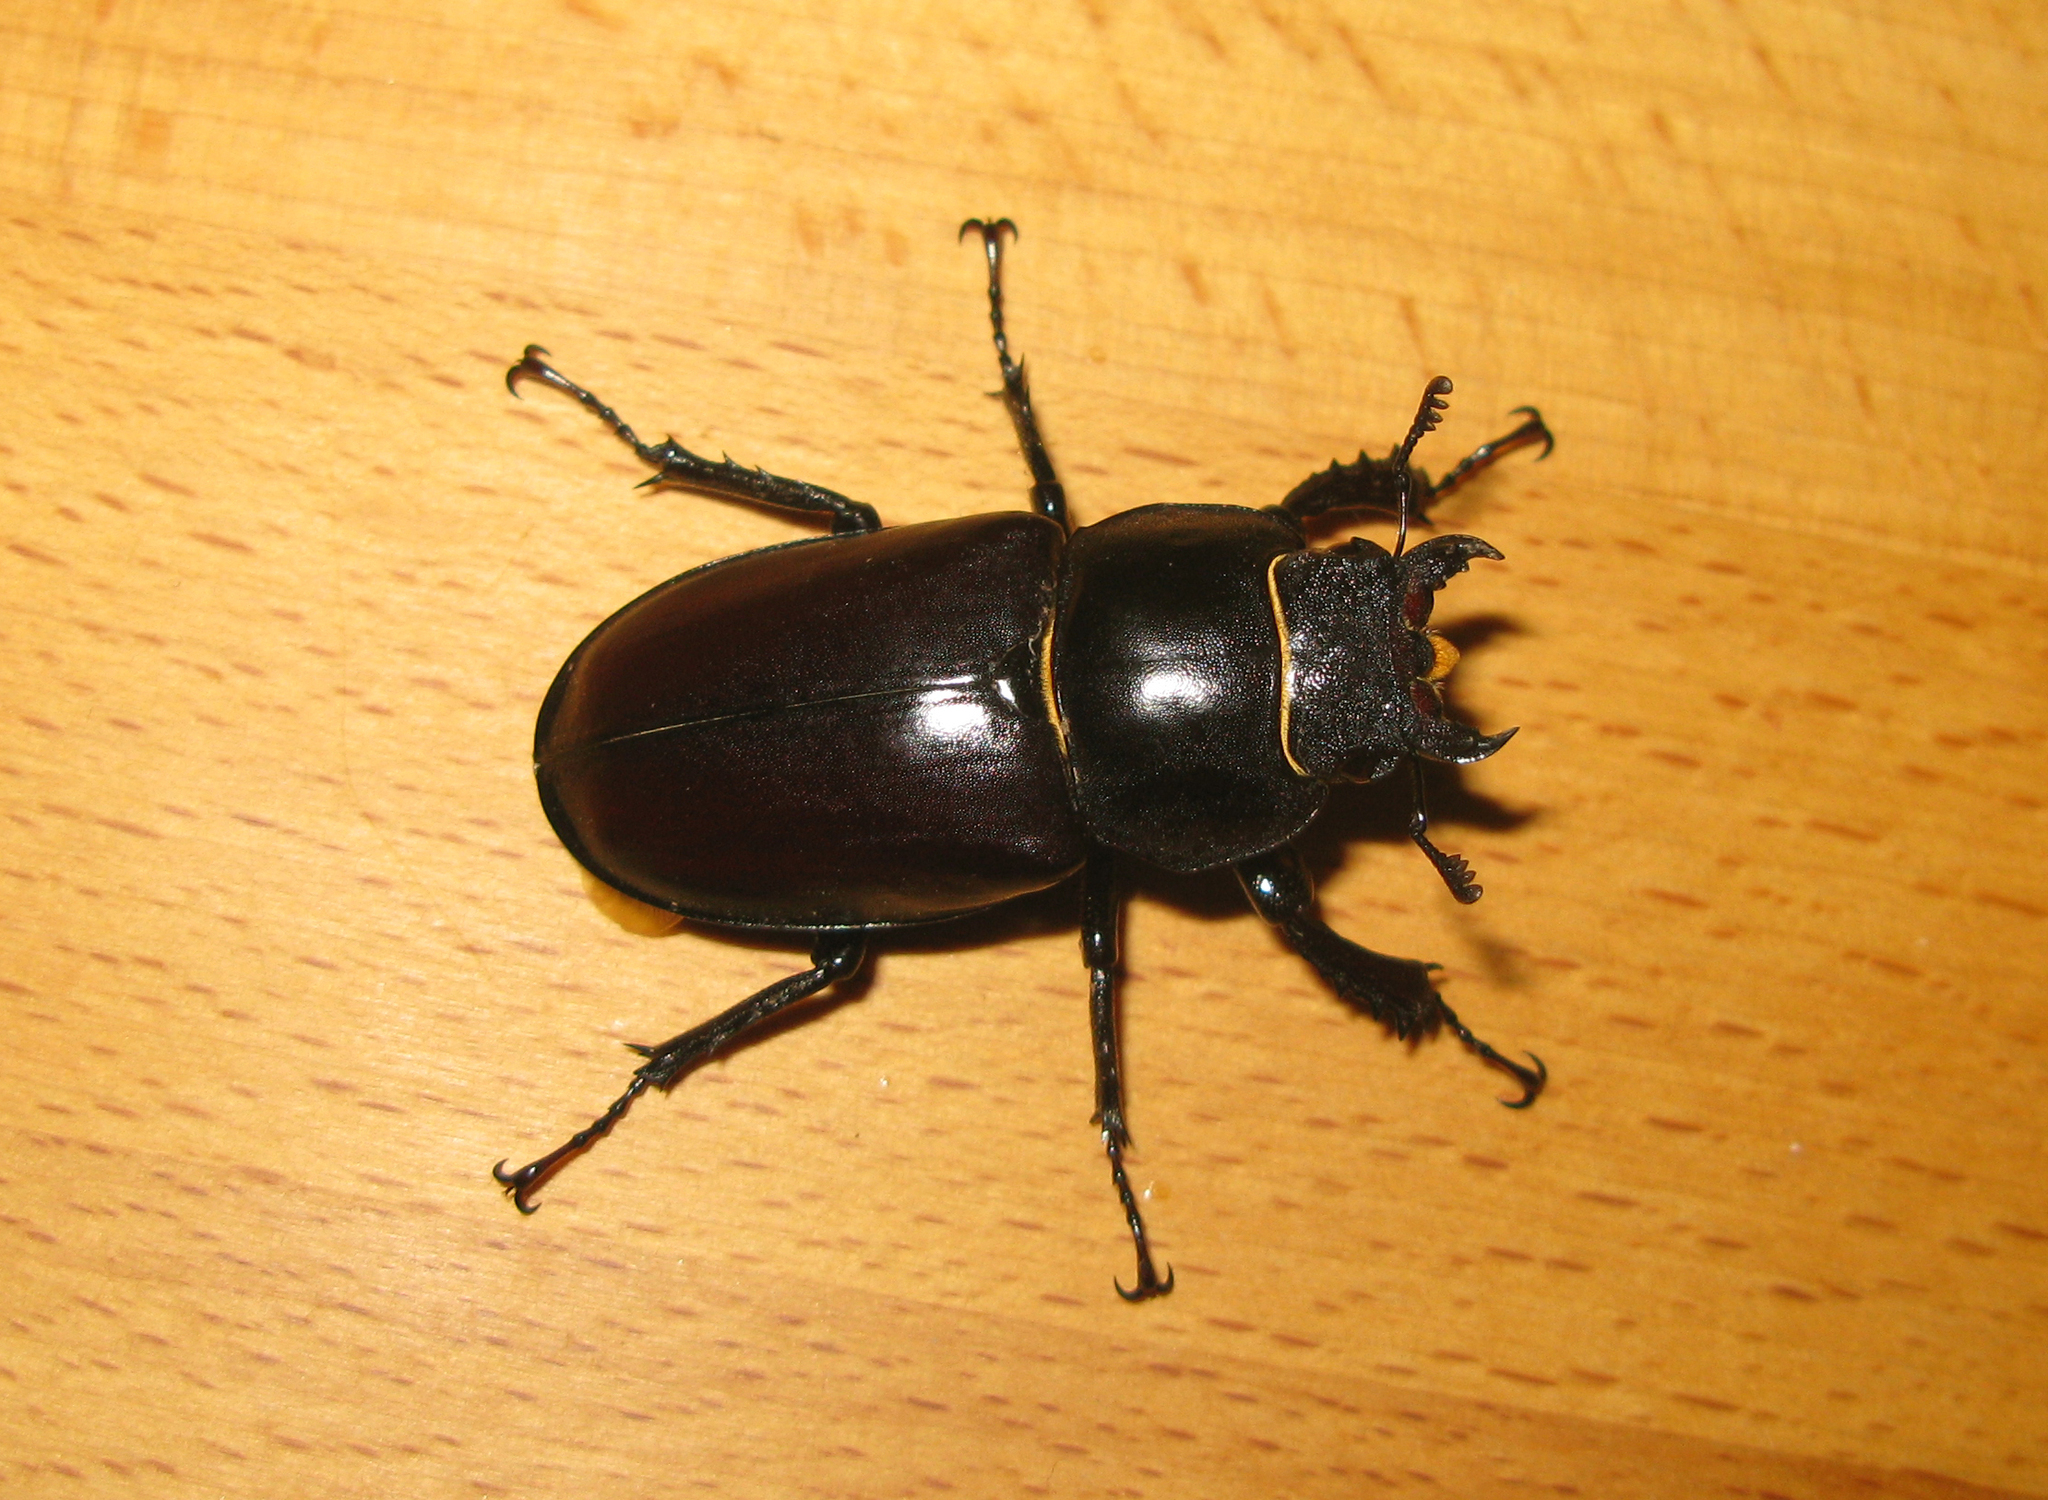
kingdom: Animalia
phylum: Arthropoda
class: Insecta
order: Coleoptera
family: Lucanidae
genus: Lucanus
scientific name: Lucanus cervus
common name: Stag beetle
